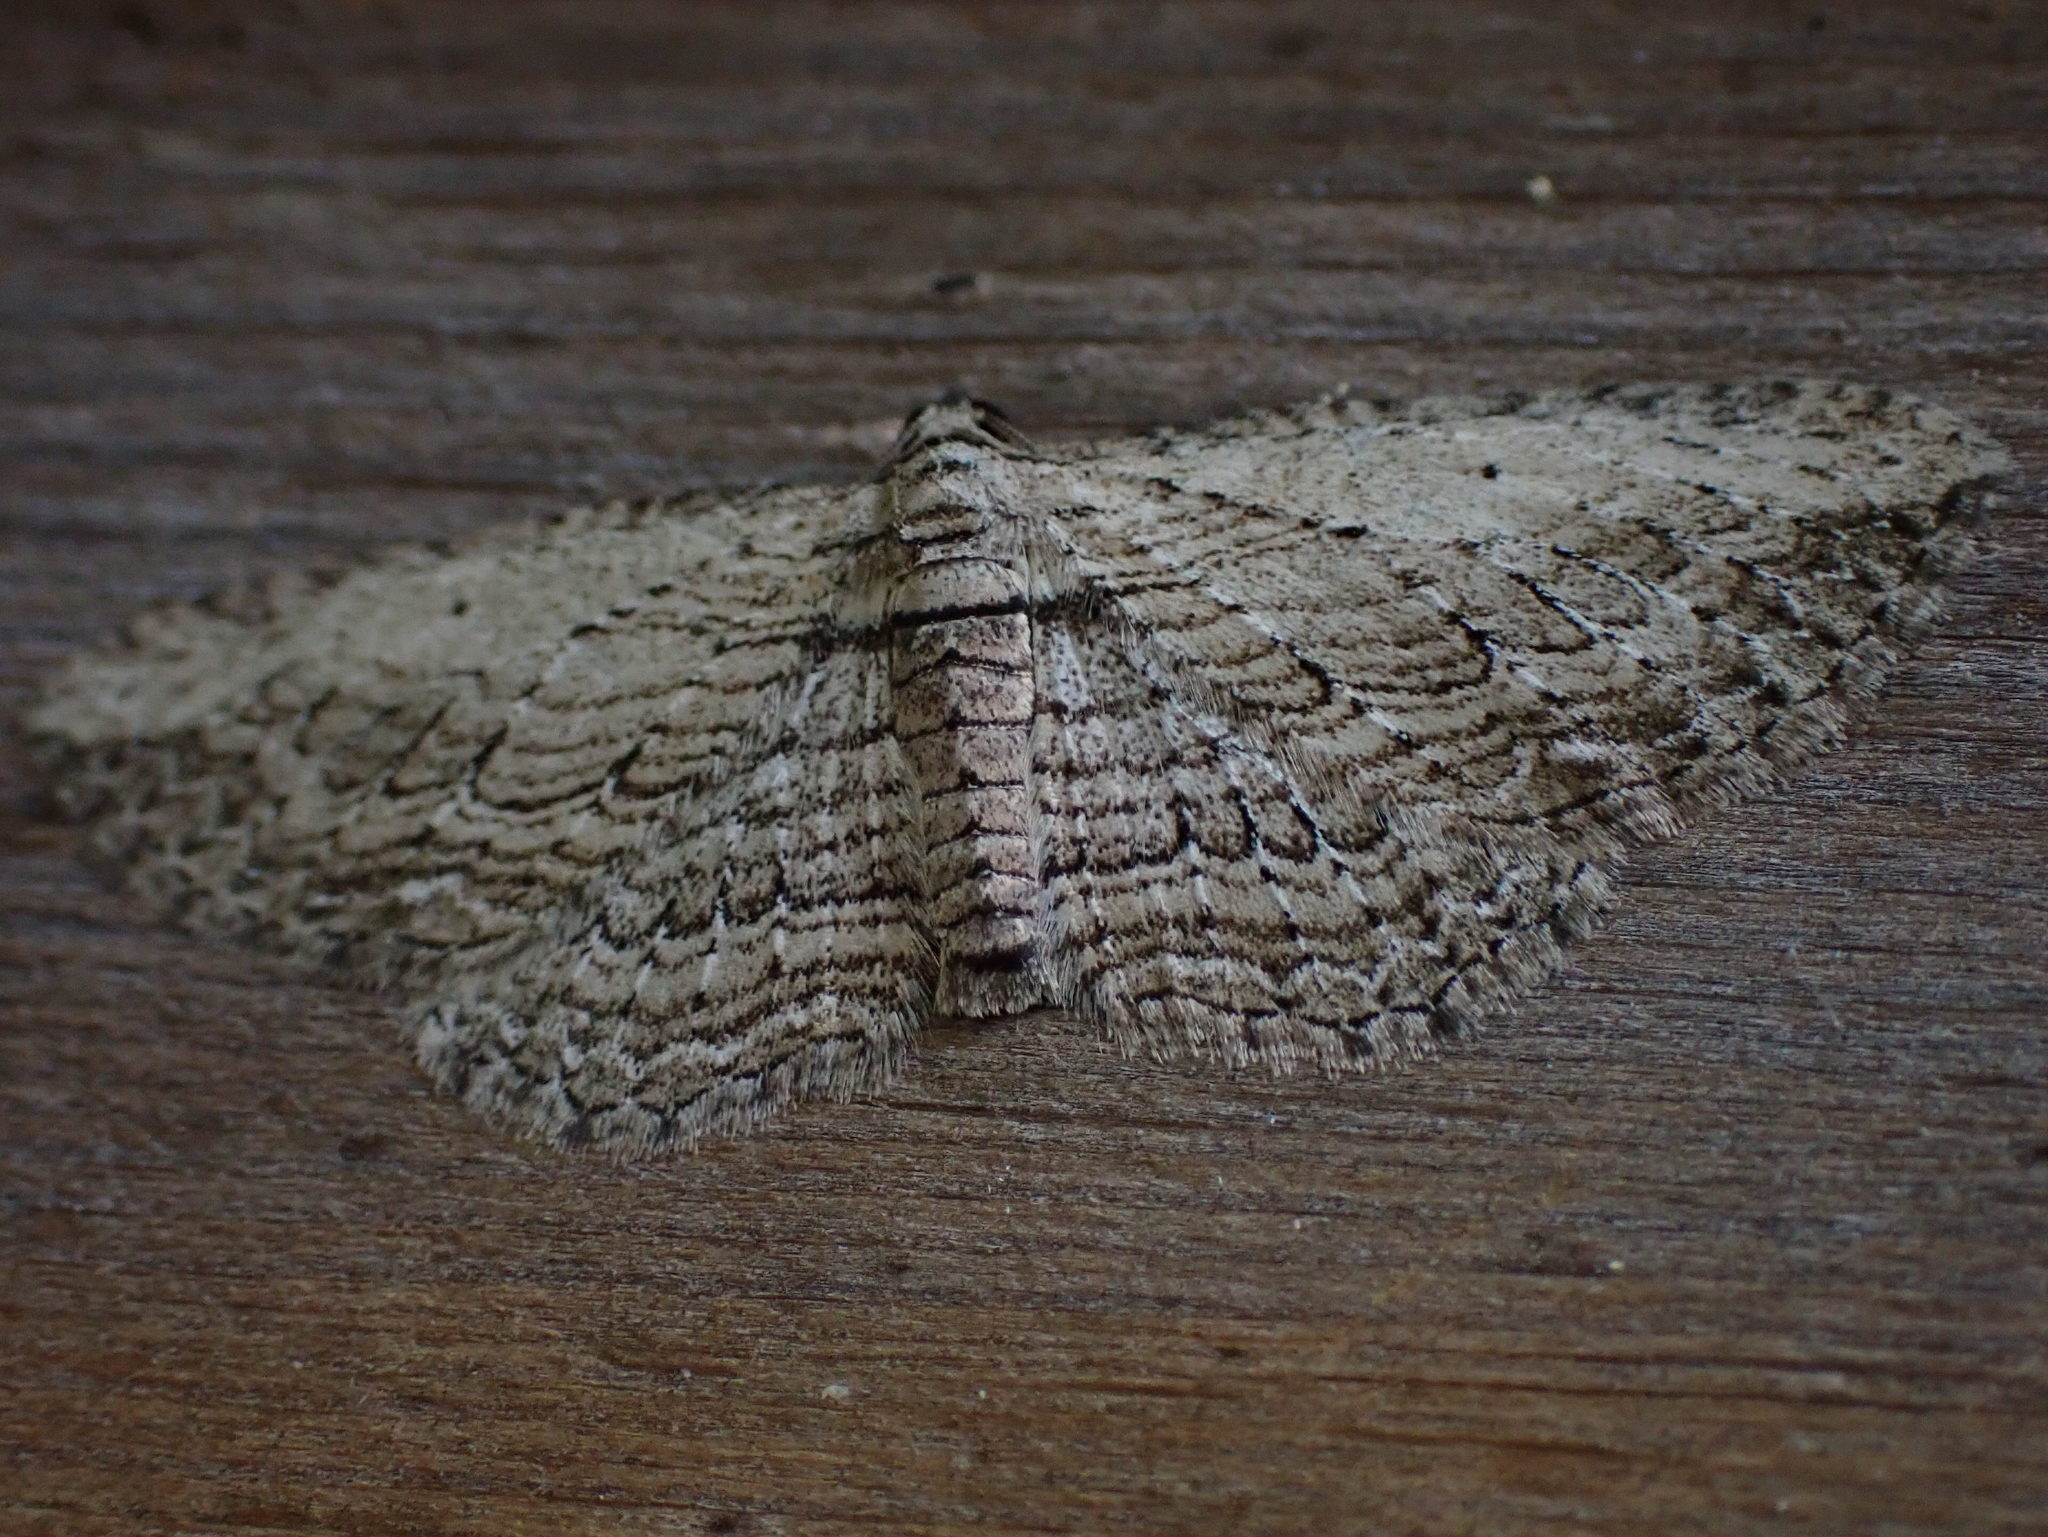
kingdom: Animalia
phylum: Arthropoda
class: Insecta
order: Lepidoptera
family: Geometridae
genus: Horisme
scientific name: Horisme intestinata
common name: Brown bark carpet
